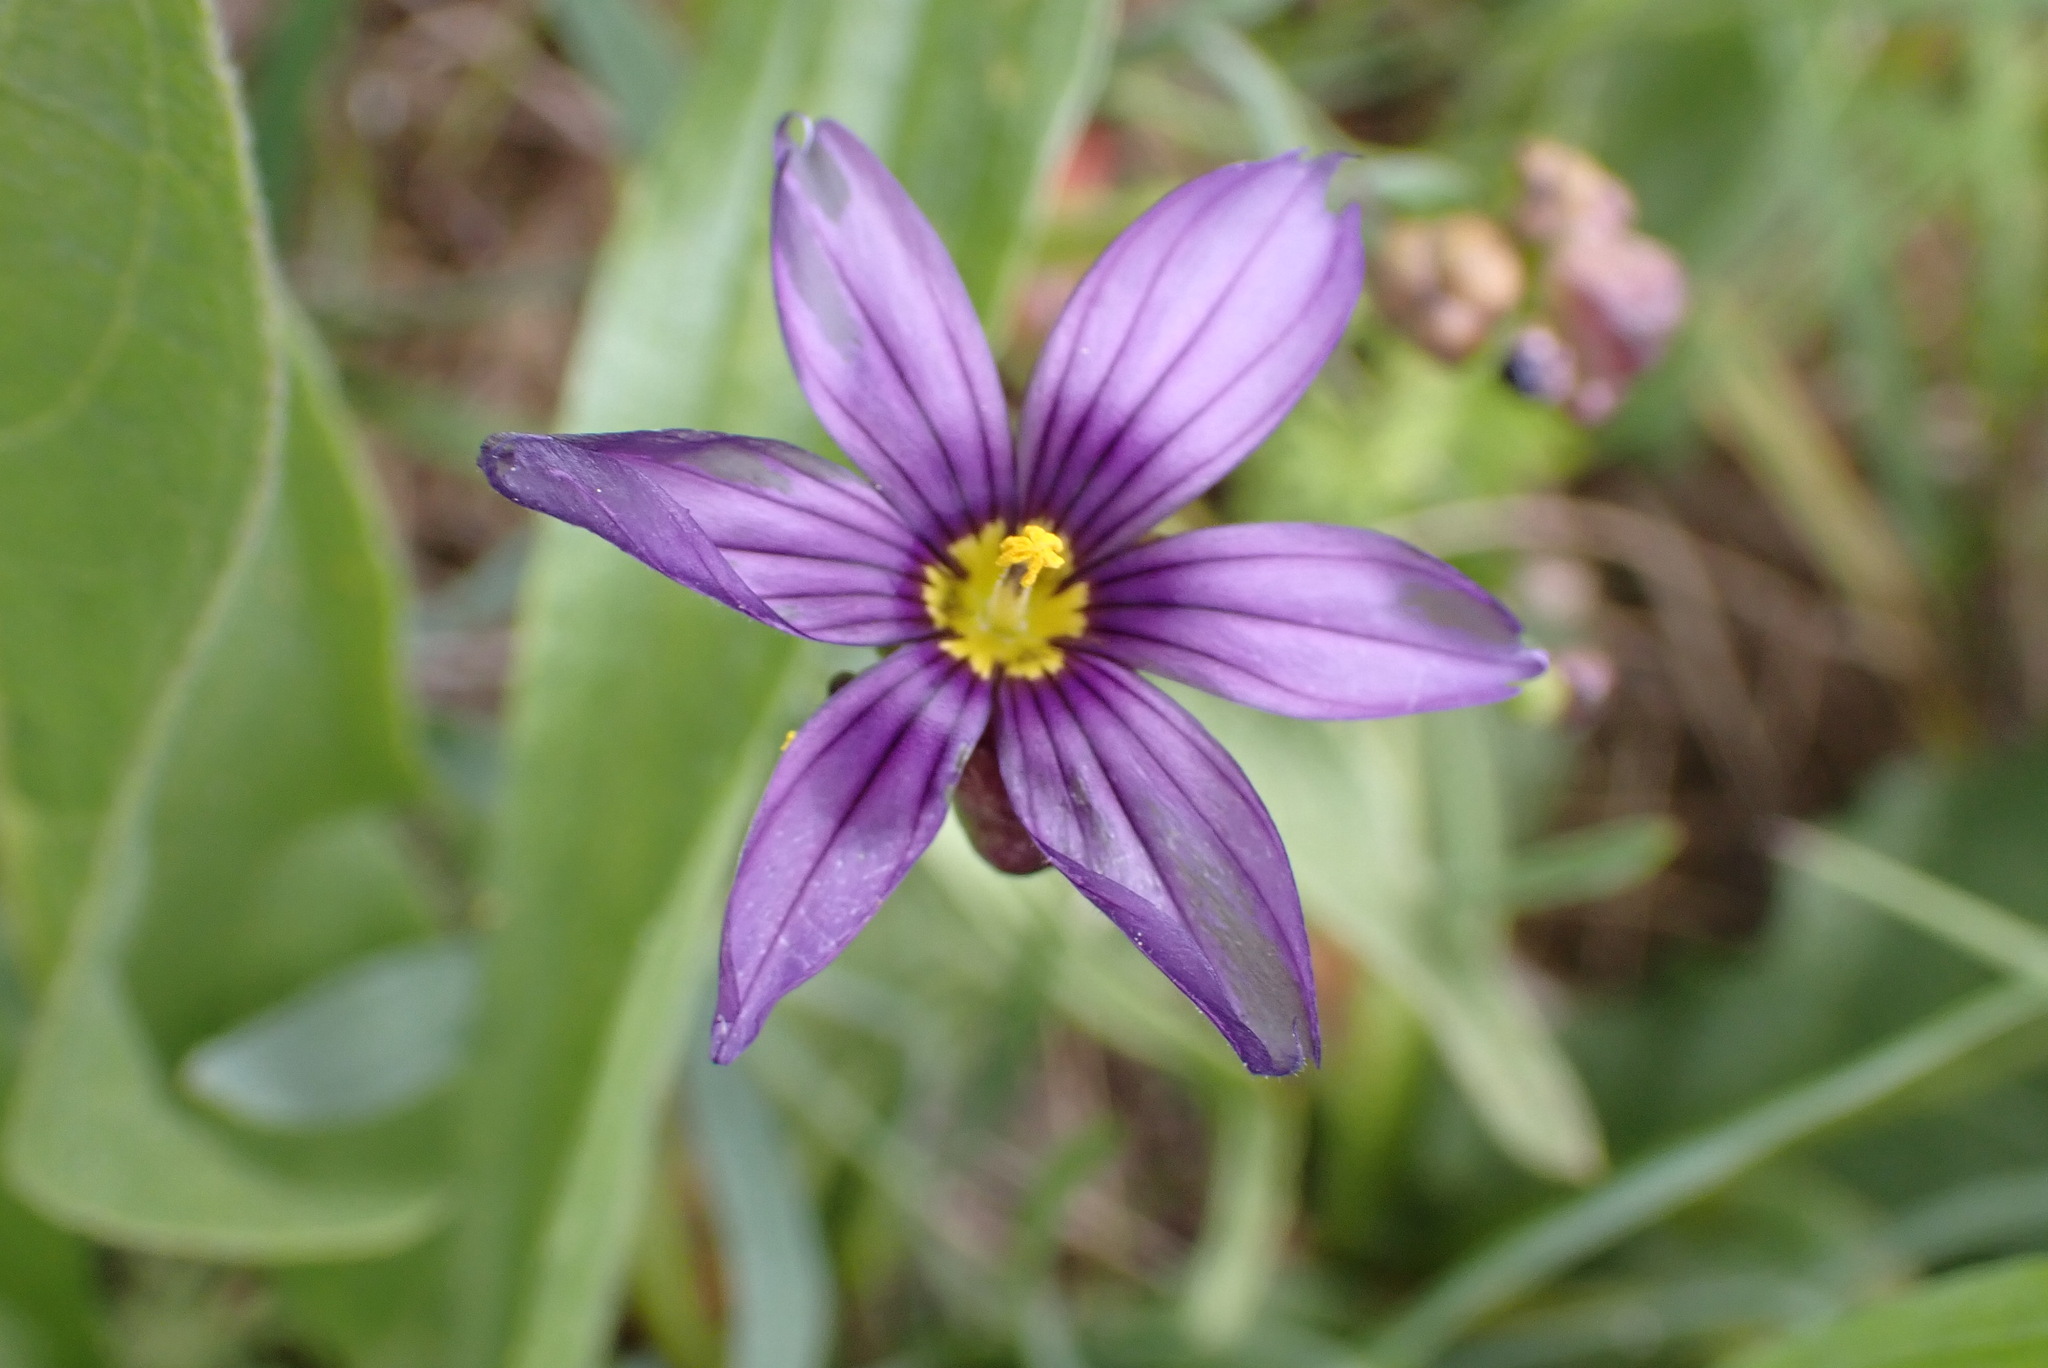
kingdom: Plantae
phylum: Tracheophyta
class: Liliopsida
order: Asparagales
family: Iridaceae
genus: Sisyrinchium
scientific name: Sisyrinchium bellum
